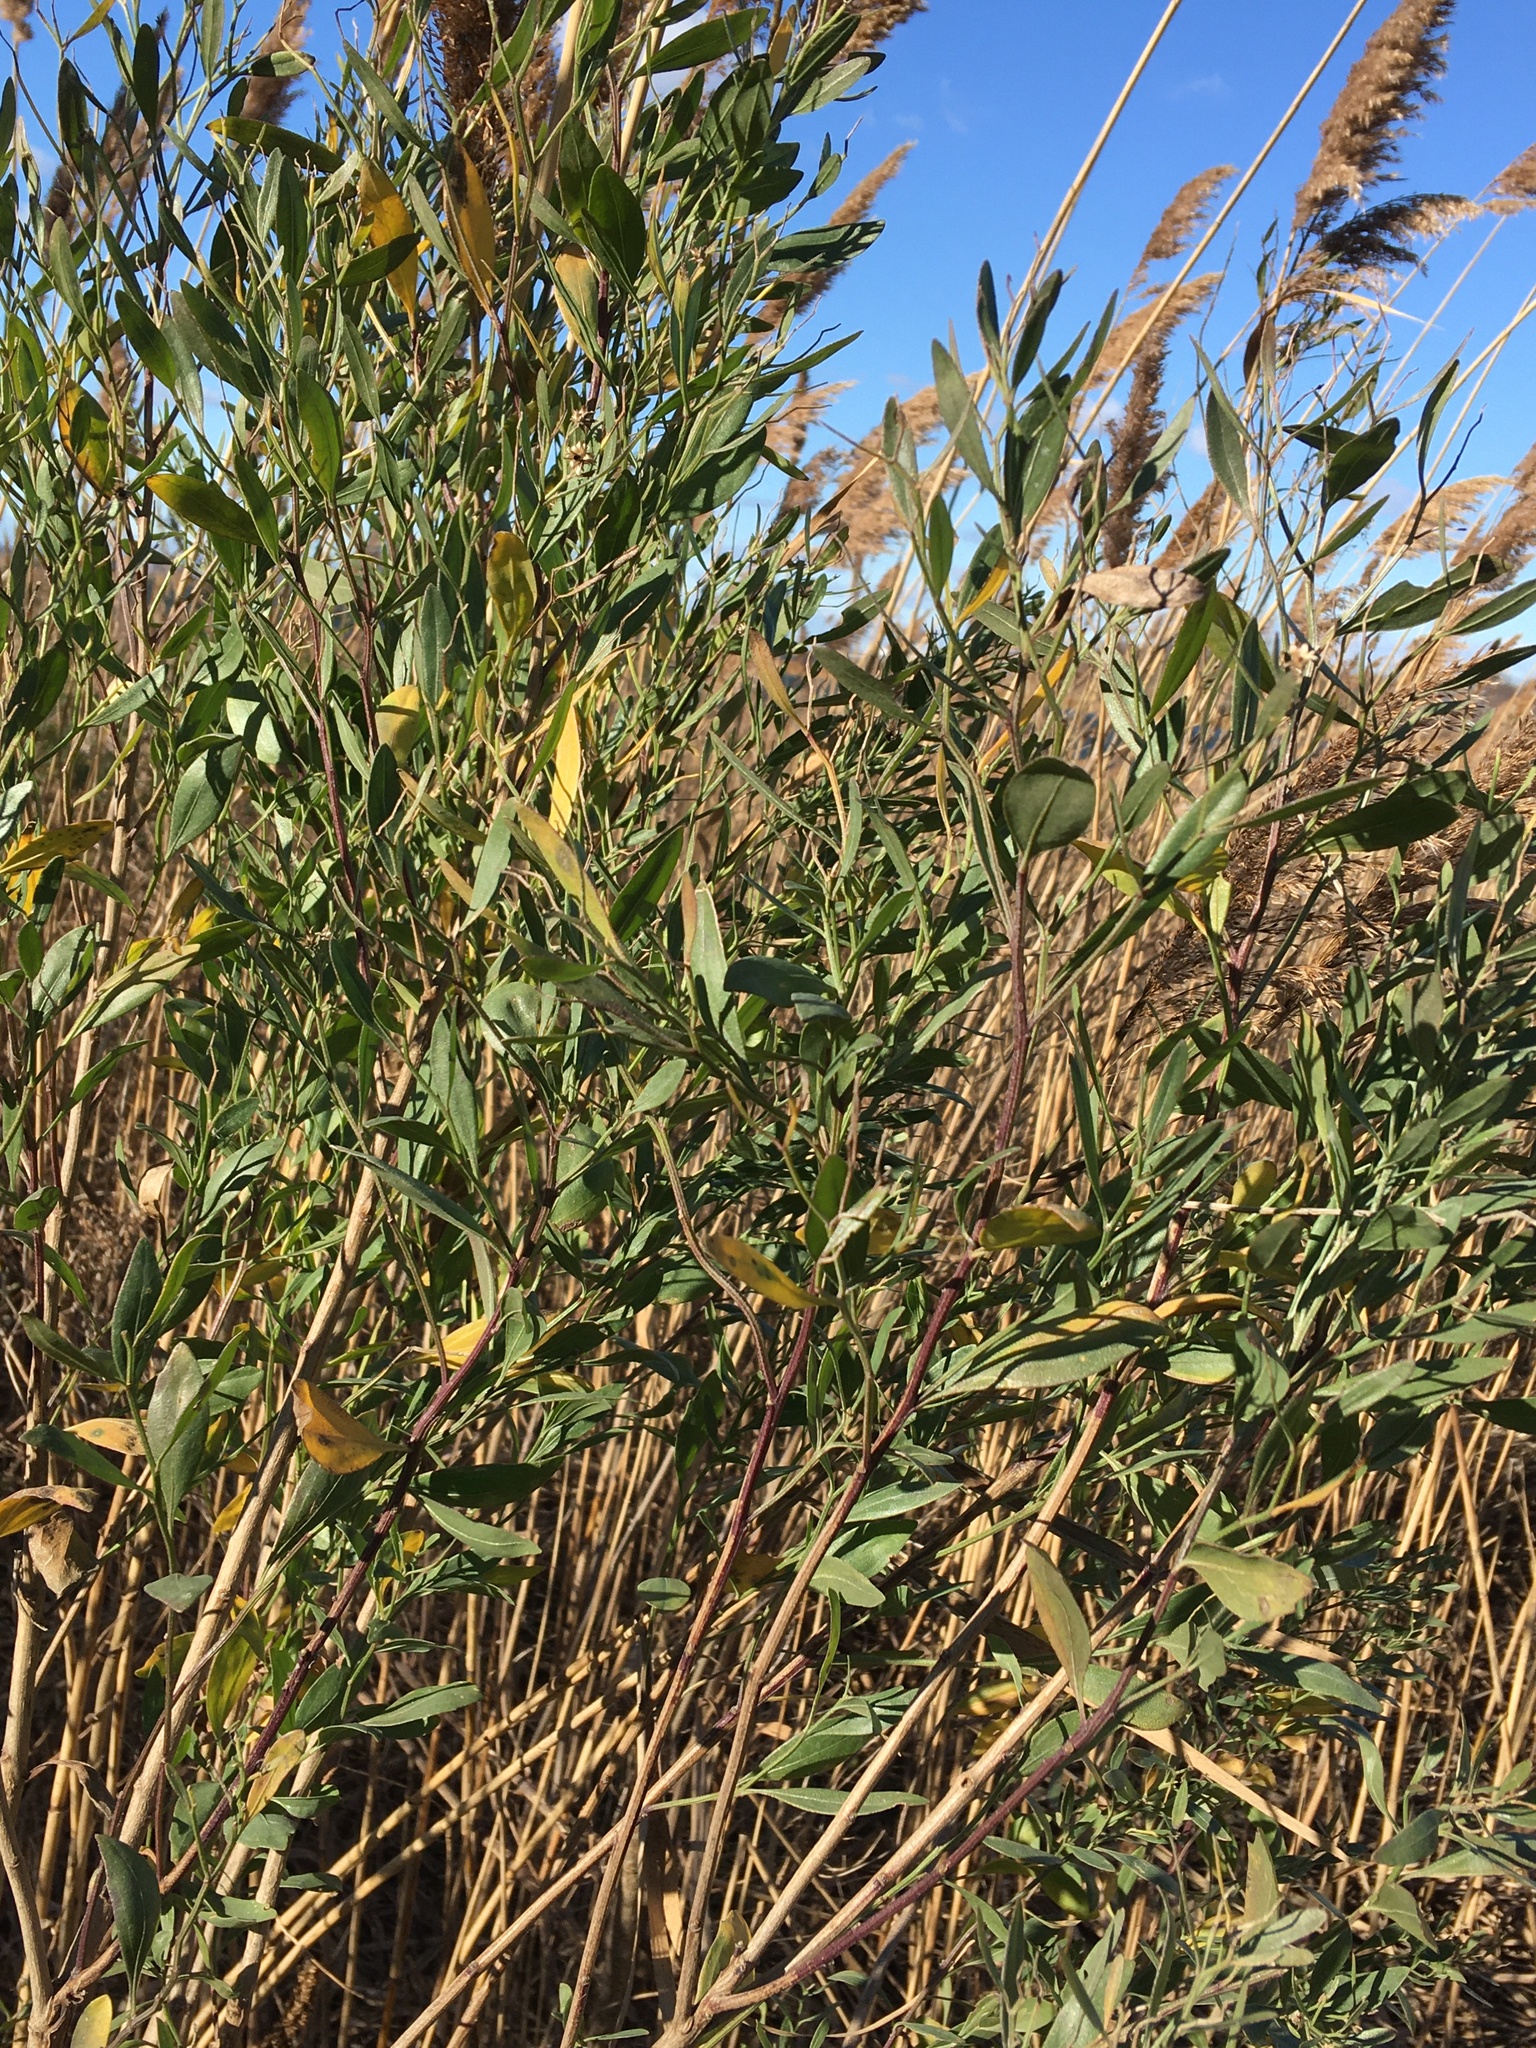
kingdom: Plantae
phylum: Tracheophyta
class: Magnoliopsida
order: Asterales
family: Asteraceae
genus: Baccharis
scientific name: Baccharis halimifolia
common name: Eastern baccharis
